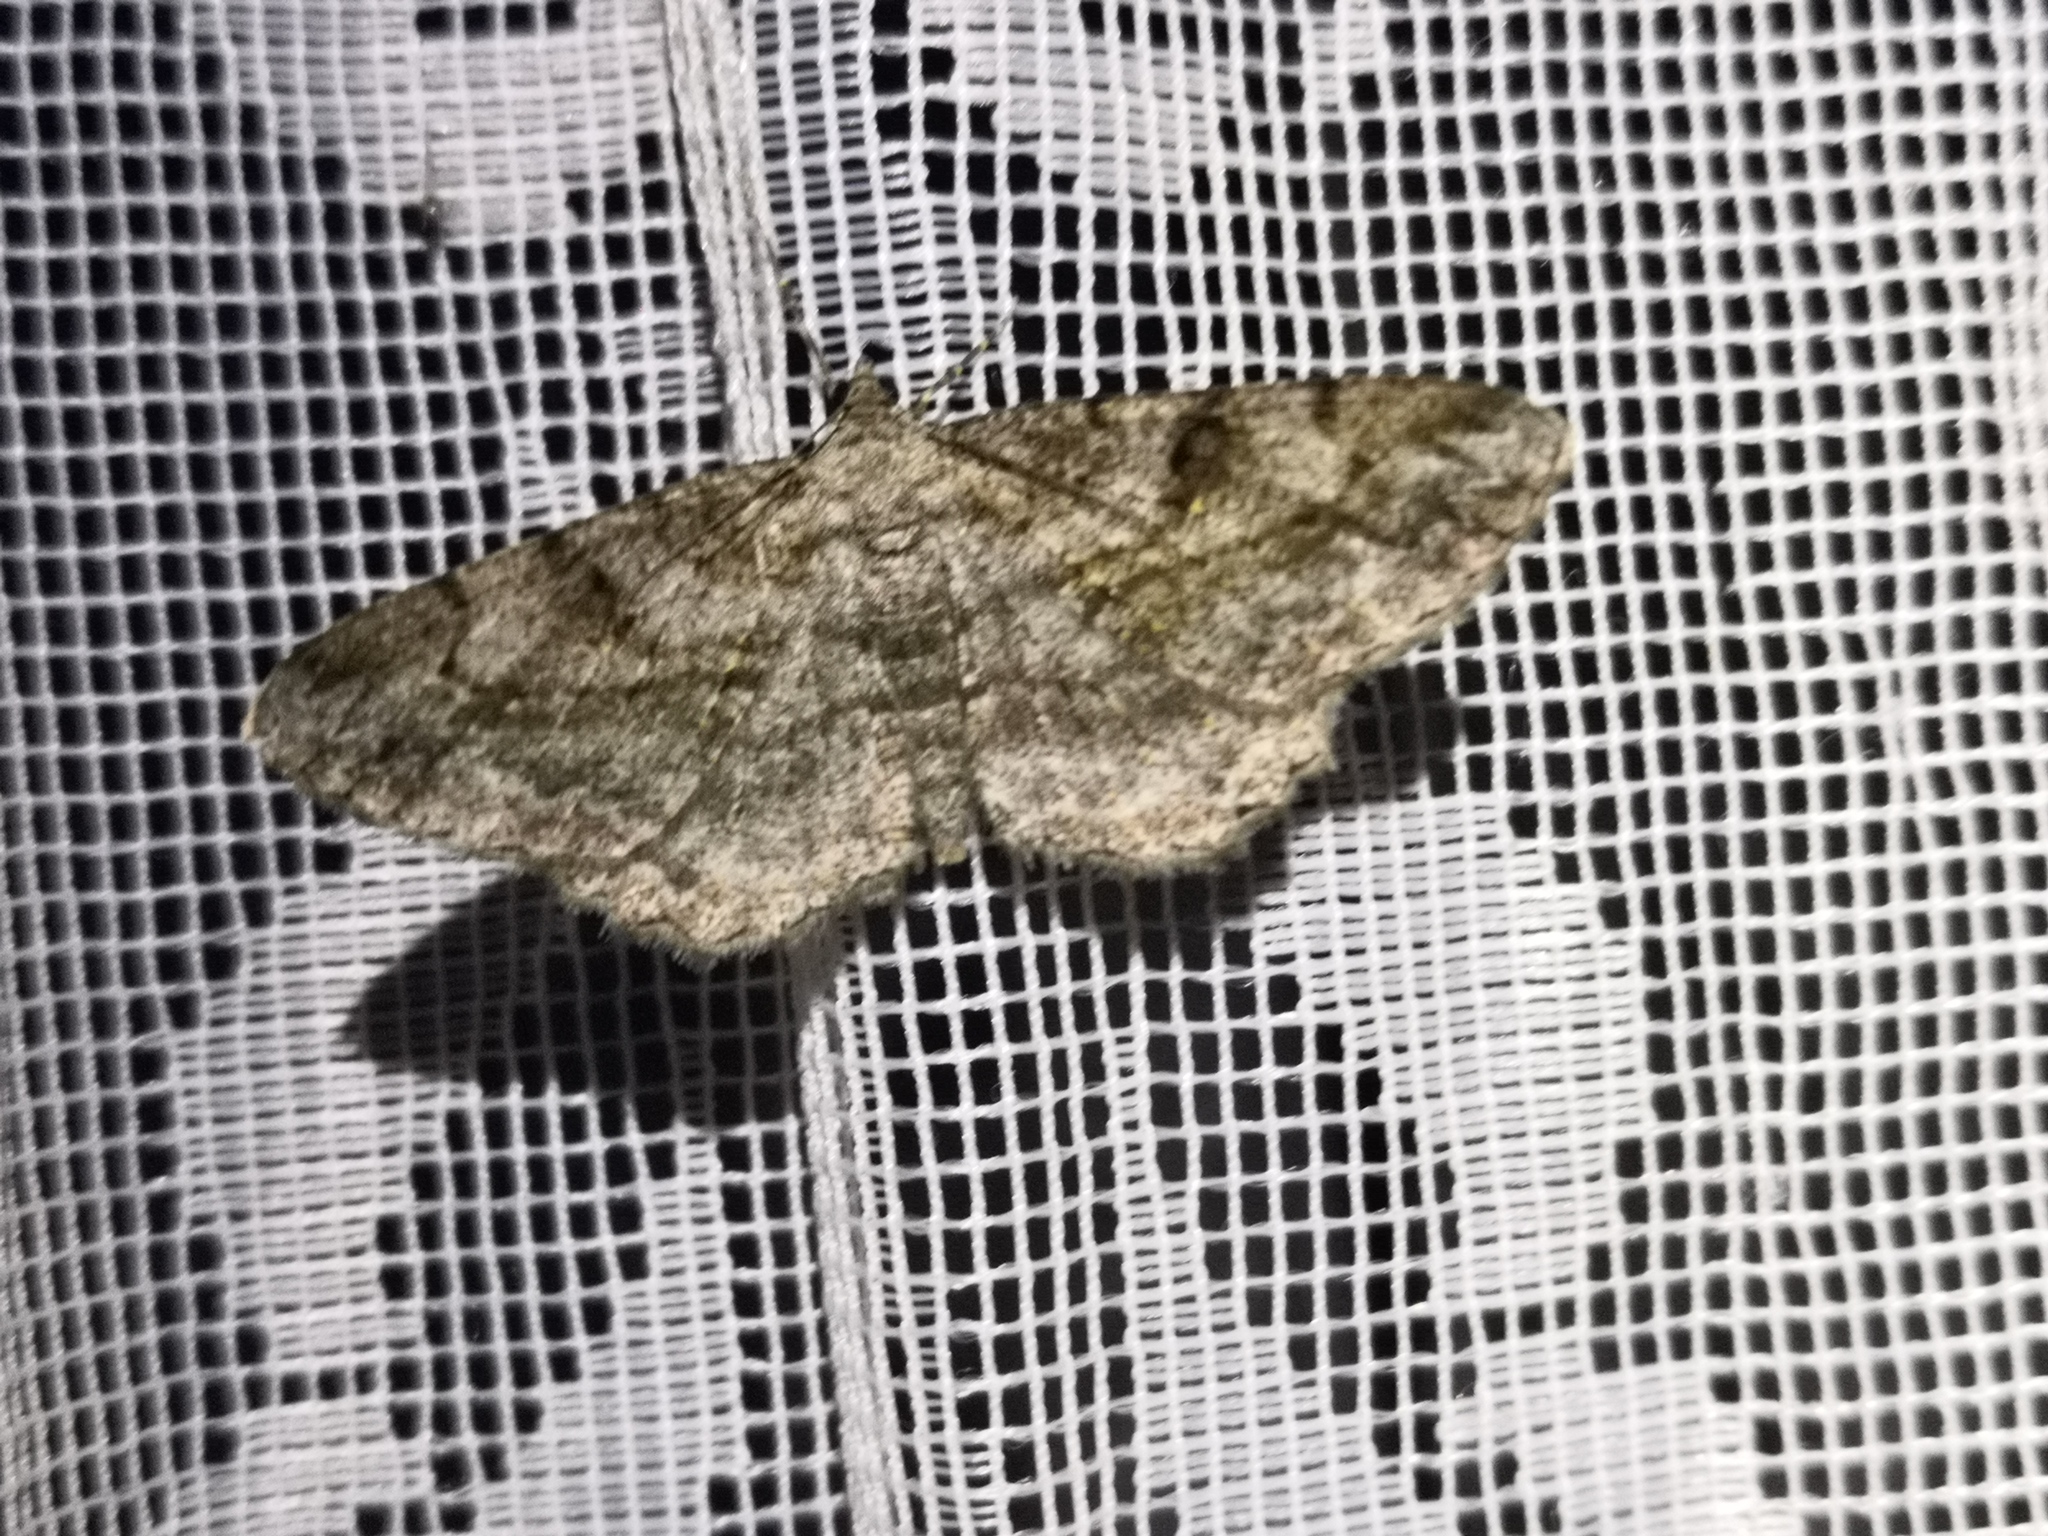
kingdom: Animalia
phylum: Arthropoda
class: Insecta
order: Lepidoptera
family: Geometridae
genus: Peribatodes
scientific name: Peribatodes rhomboidaria
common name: Willow beauty
